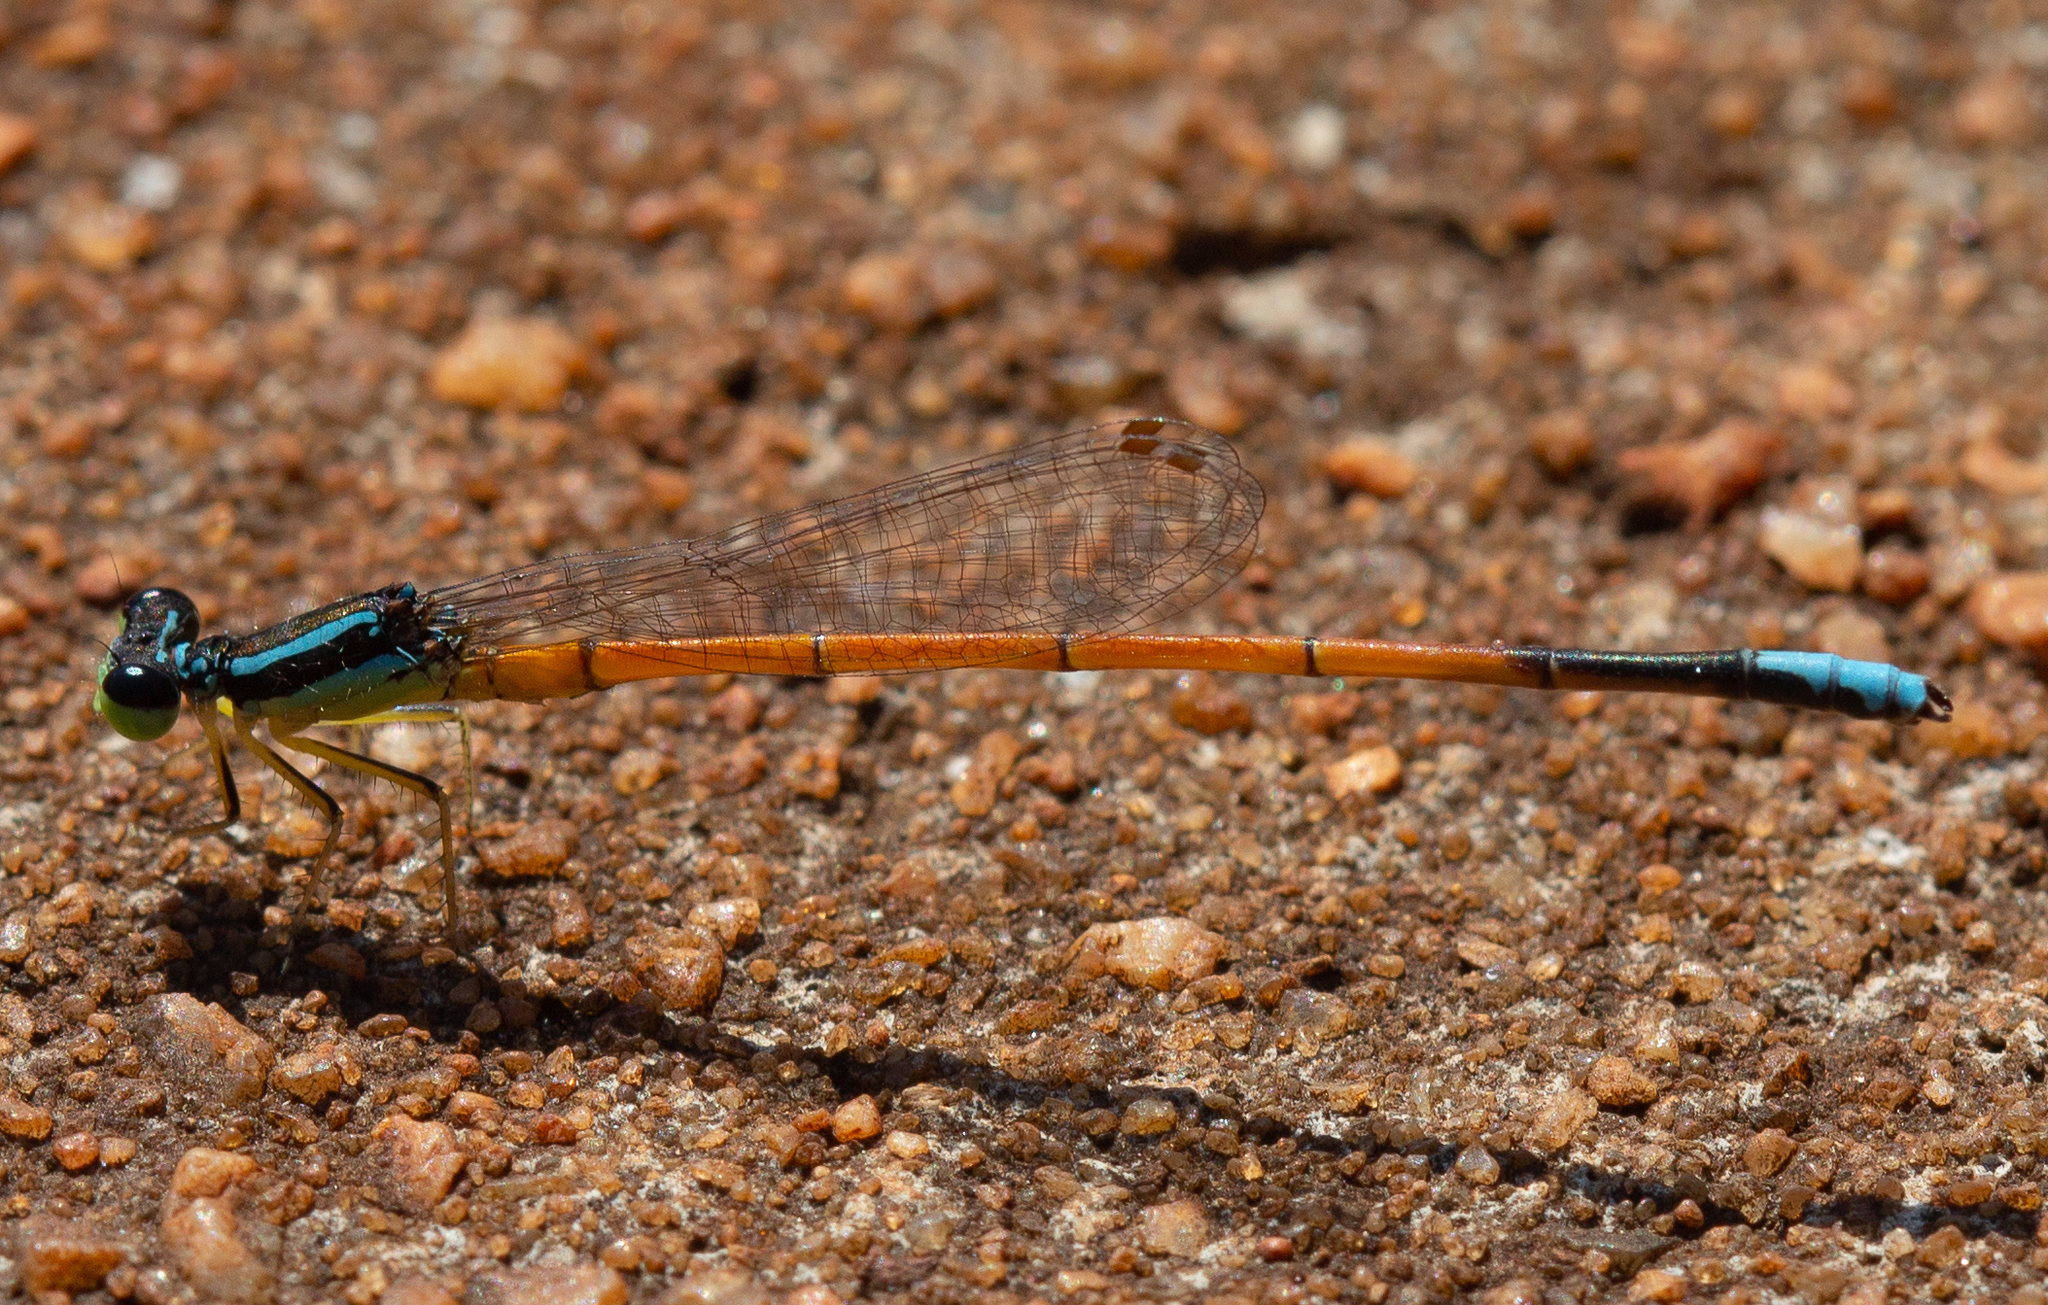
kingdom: Animalia
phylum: Arthropoda
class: Insecta
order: Odonata
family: Coenagrionidae
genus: Minagrion
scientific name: Minagrion waltheri
